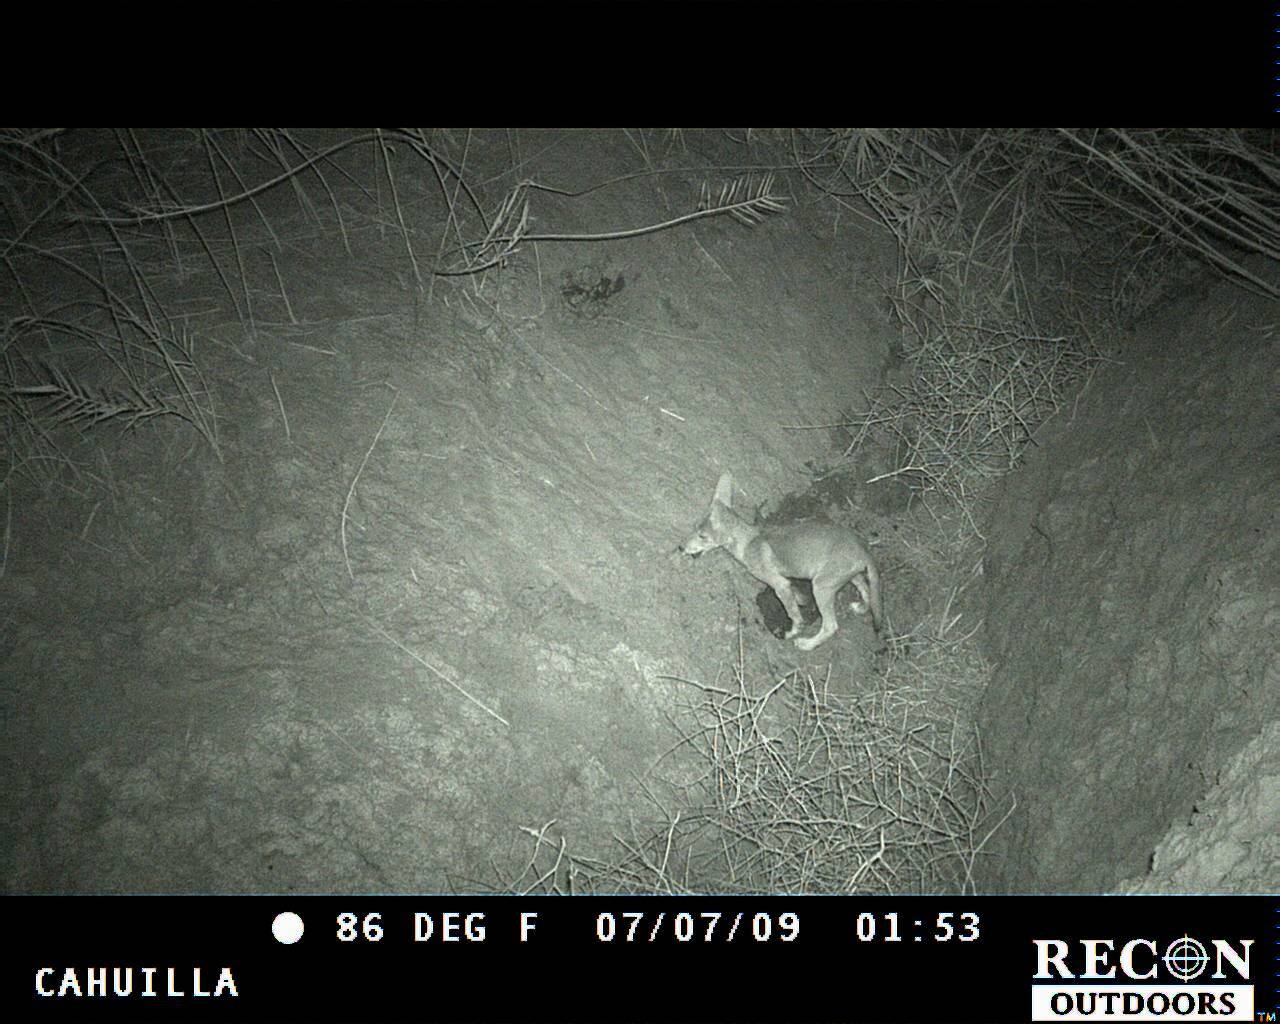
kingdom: Animalia
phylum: Chordata
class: Mammalia
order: Carnivora
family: Canidae
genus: Canis
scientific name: Canis latrans
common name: Coyote
